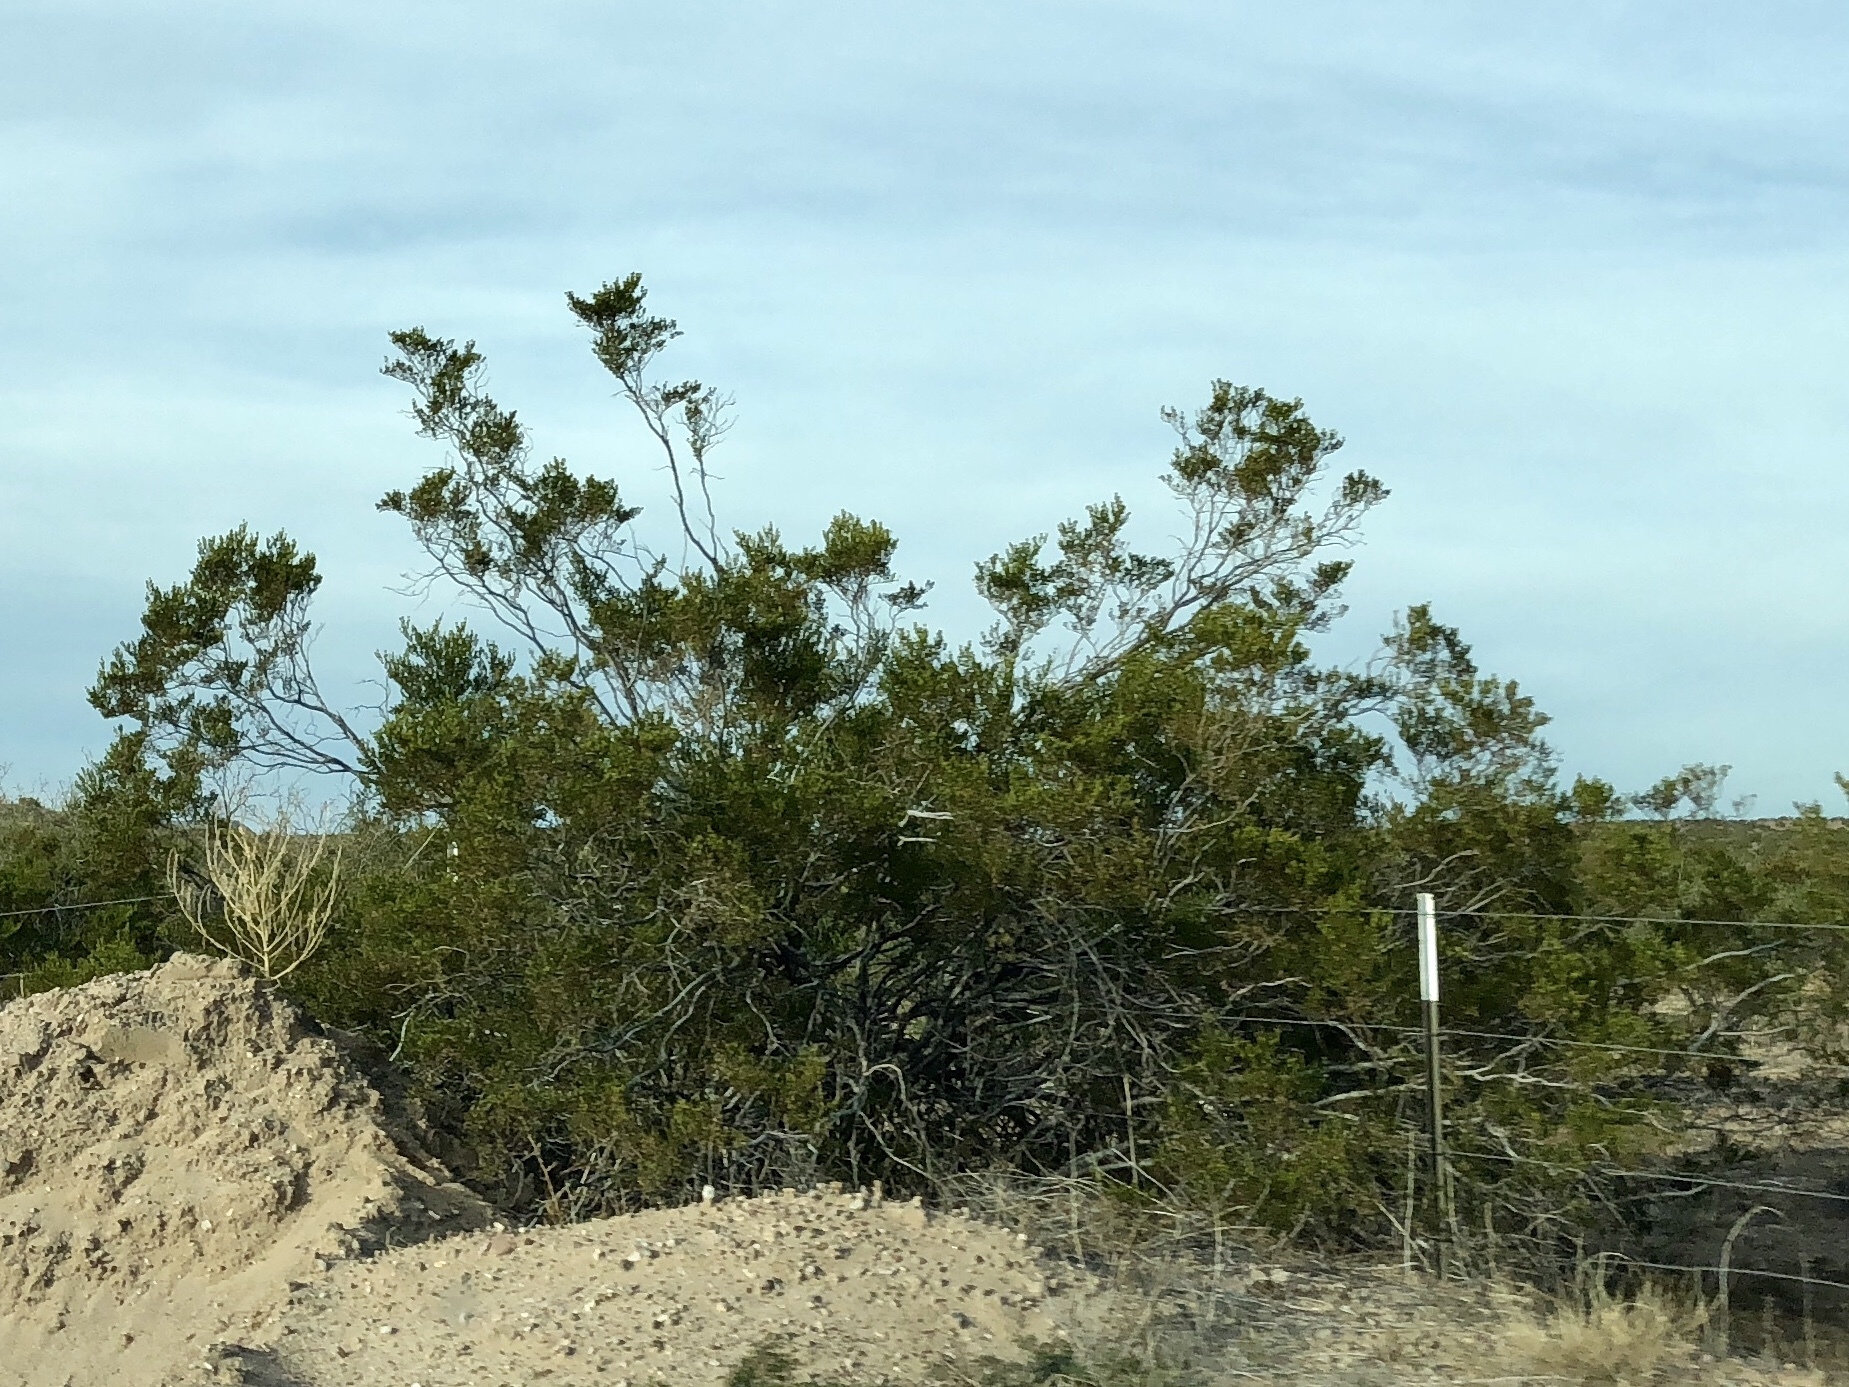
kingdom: Plantae
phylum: Tracheophyta
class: Magnoliopsida
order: Zygophyllales
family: Zygophyllaceae
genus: Larrea
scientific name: Larrea tridentata
